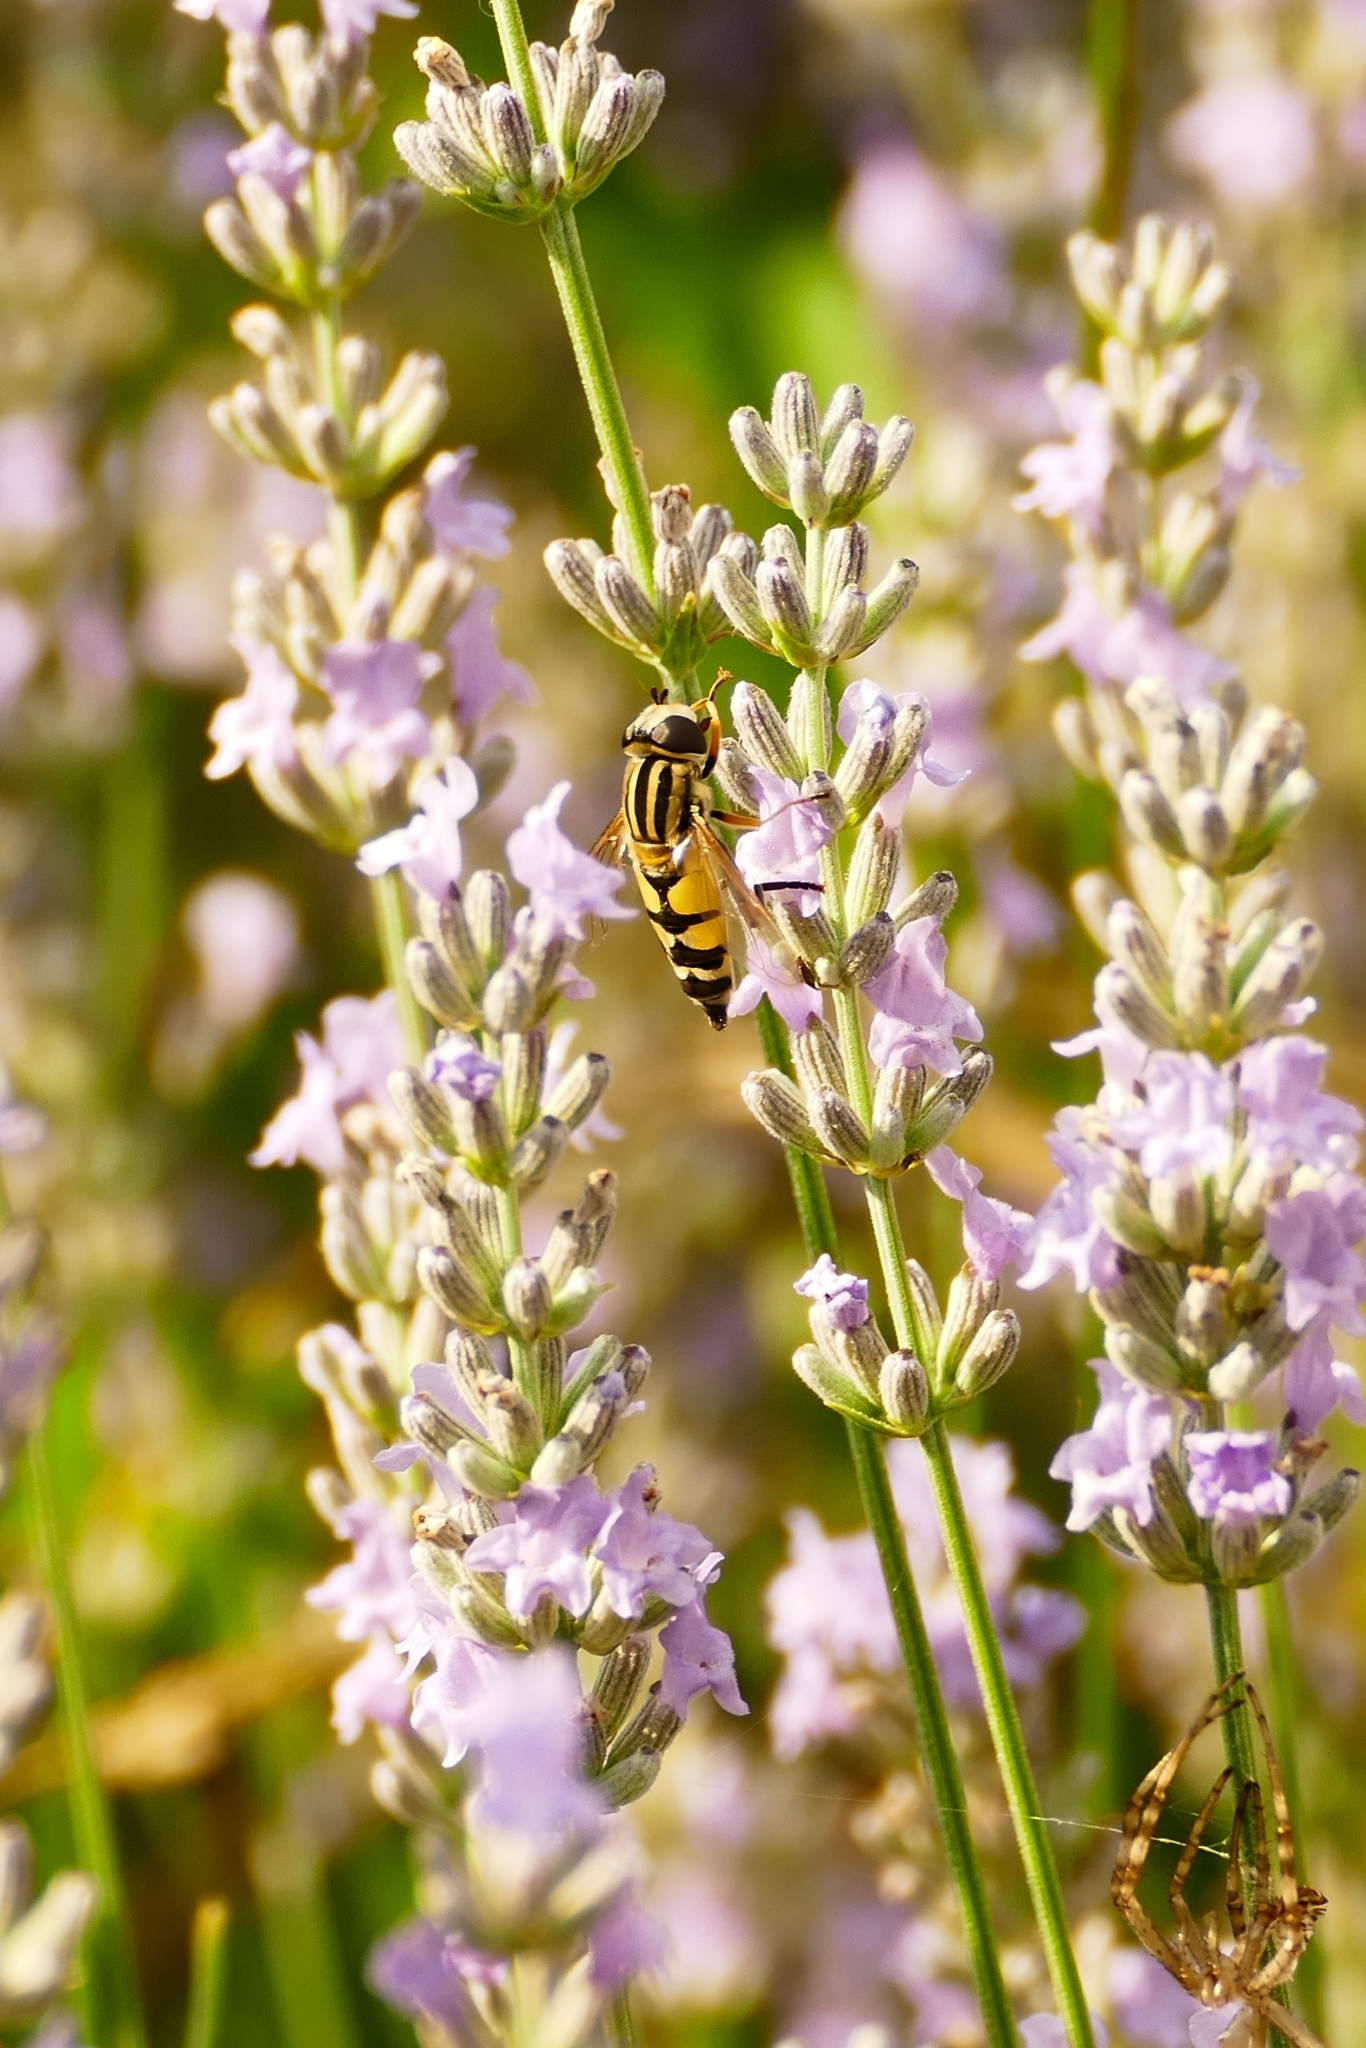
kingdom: Animalia
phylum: Arthropoda
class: Insecta
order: Diptera
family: Syrphidae
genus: Helophilus
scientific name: Helophilus trivittatus
